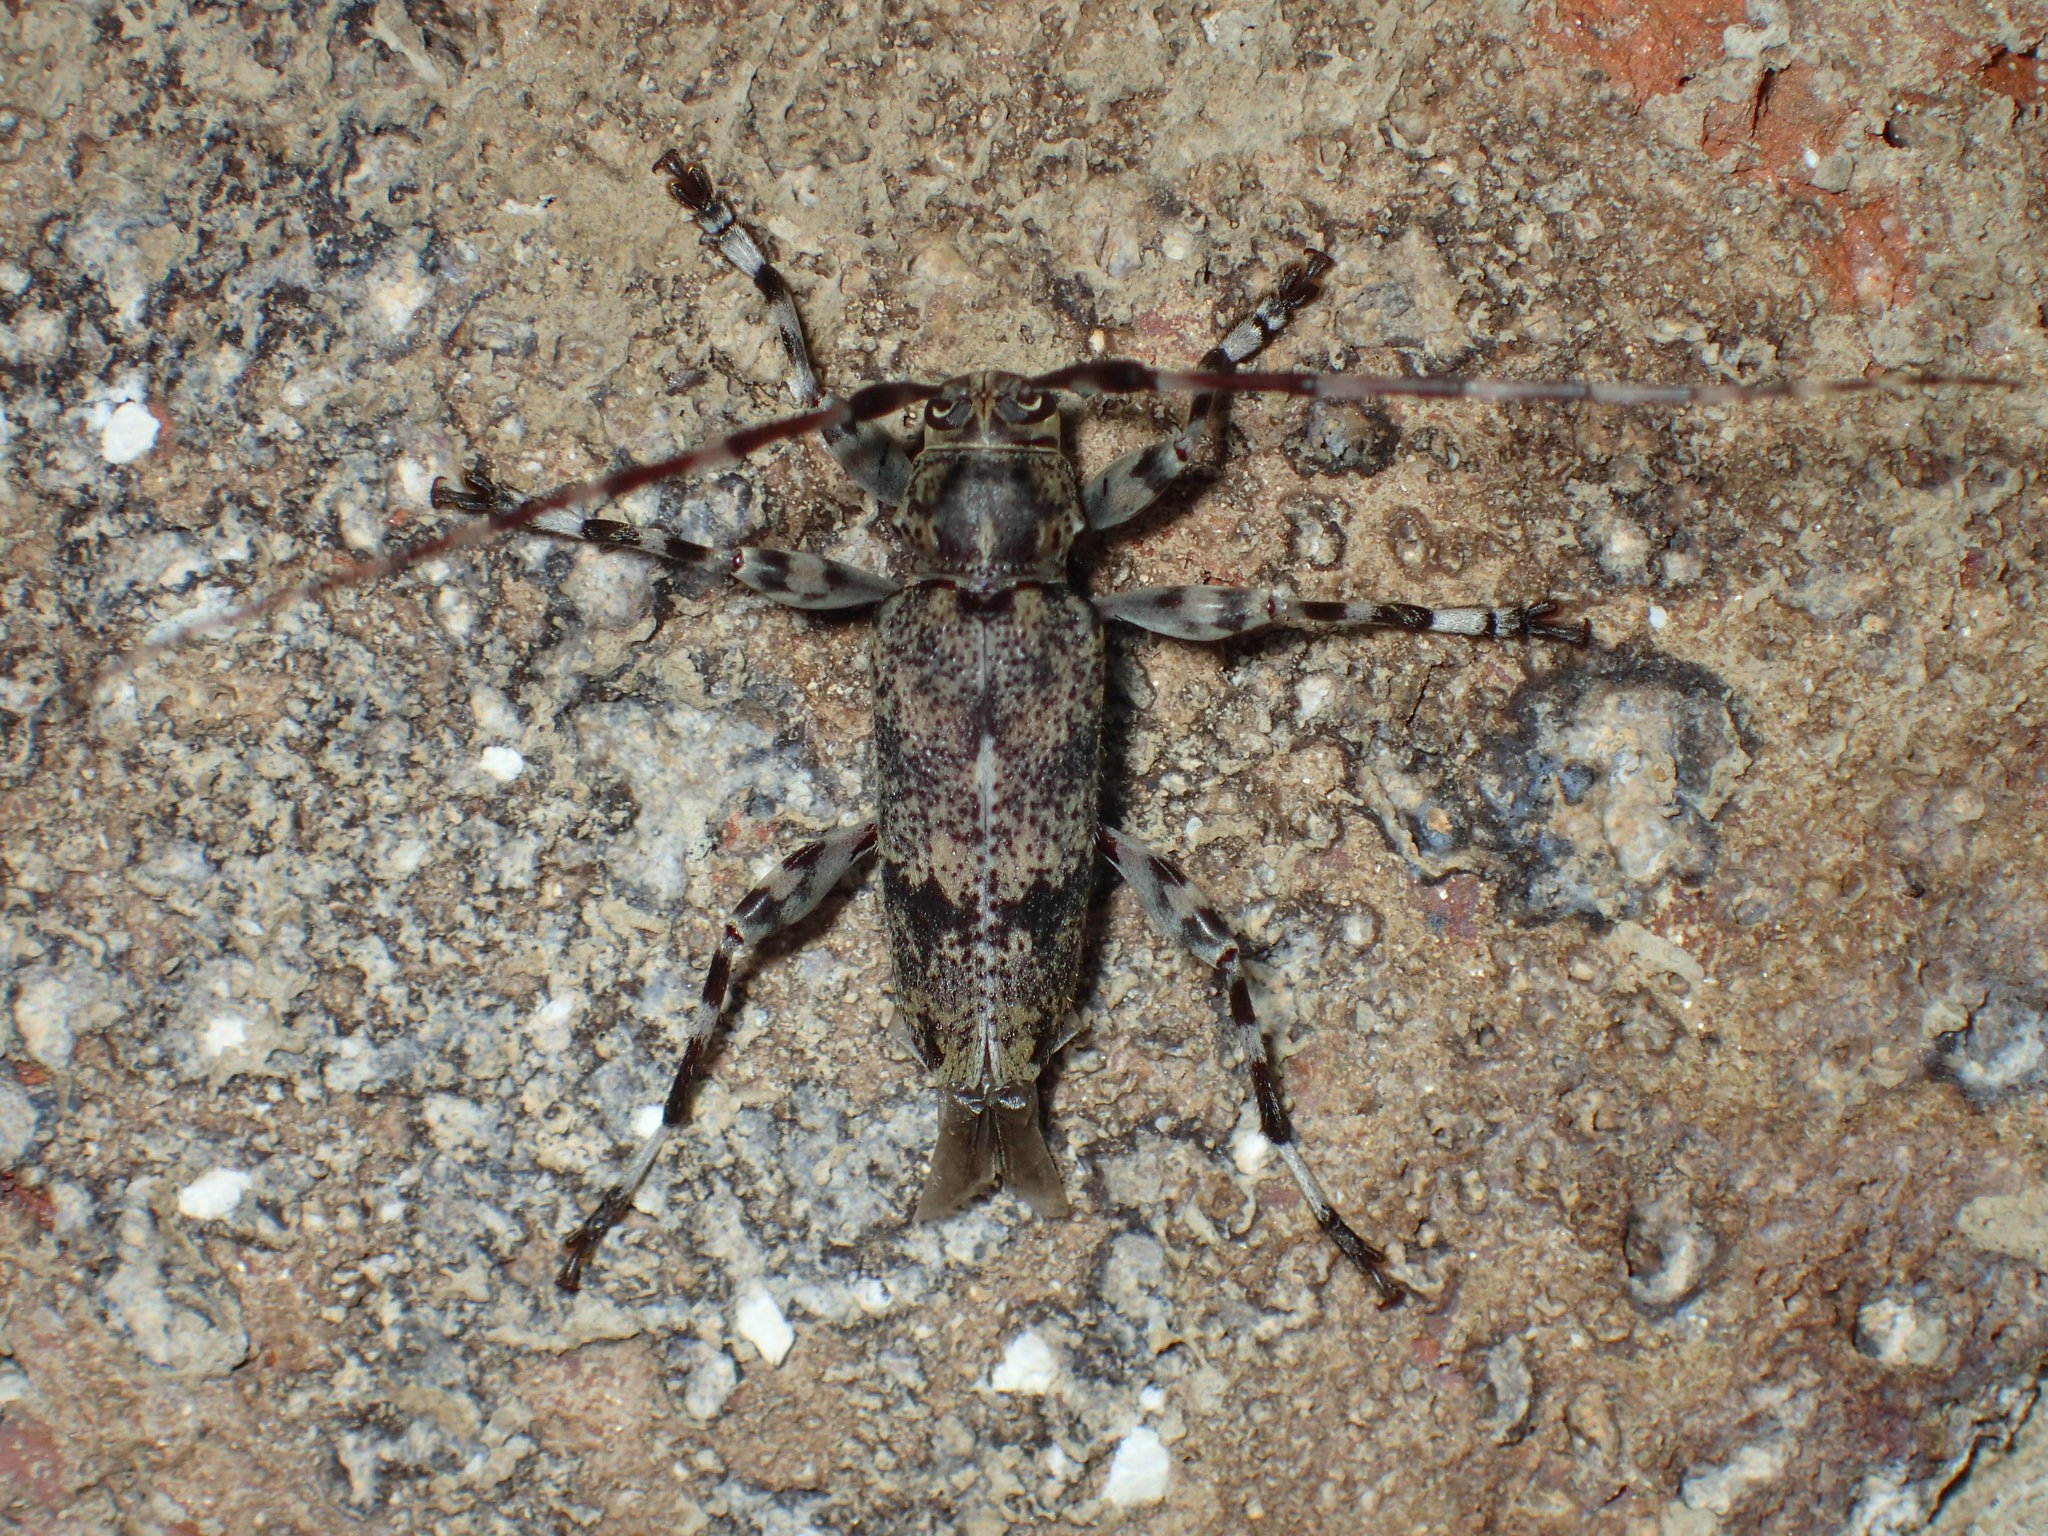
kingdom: Animalia
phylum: Arthropoda
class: Insecta
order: Coleoptera
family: Cerambycidae
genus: Graphisurus
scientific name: Graphisurus fasciatus
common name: Banded graphisurus
